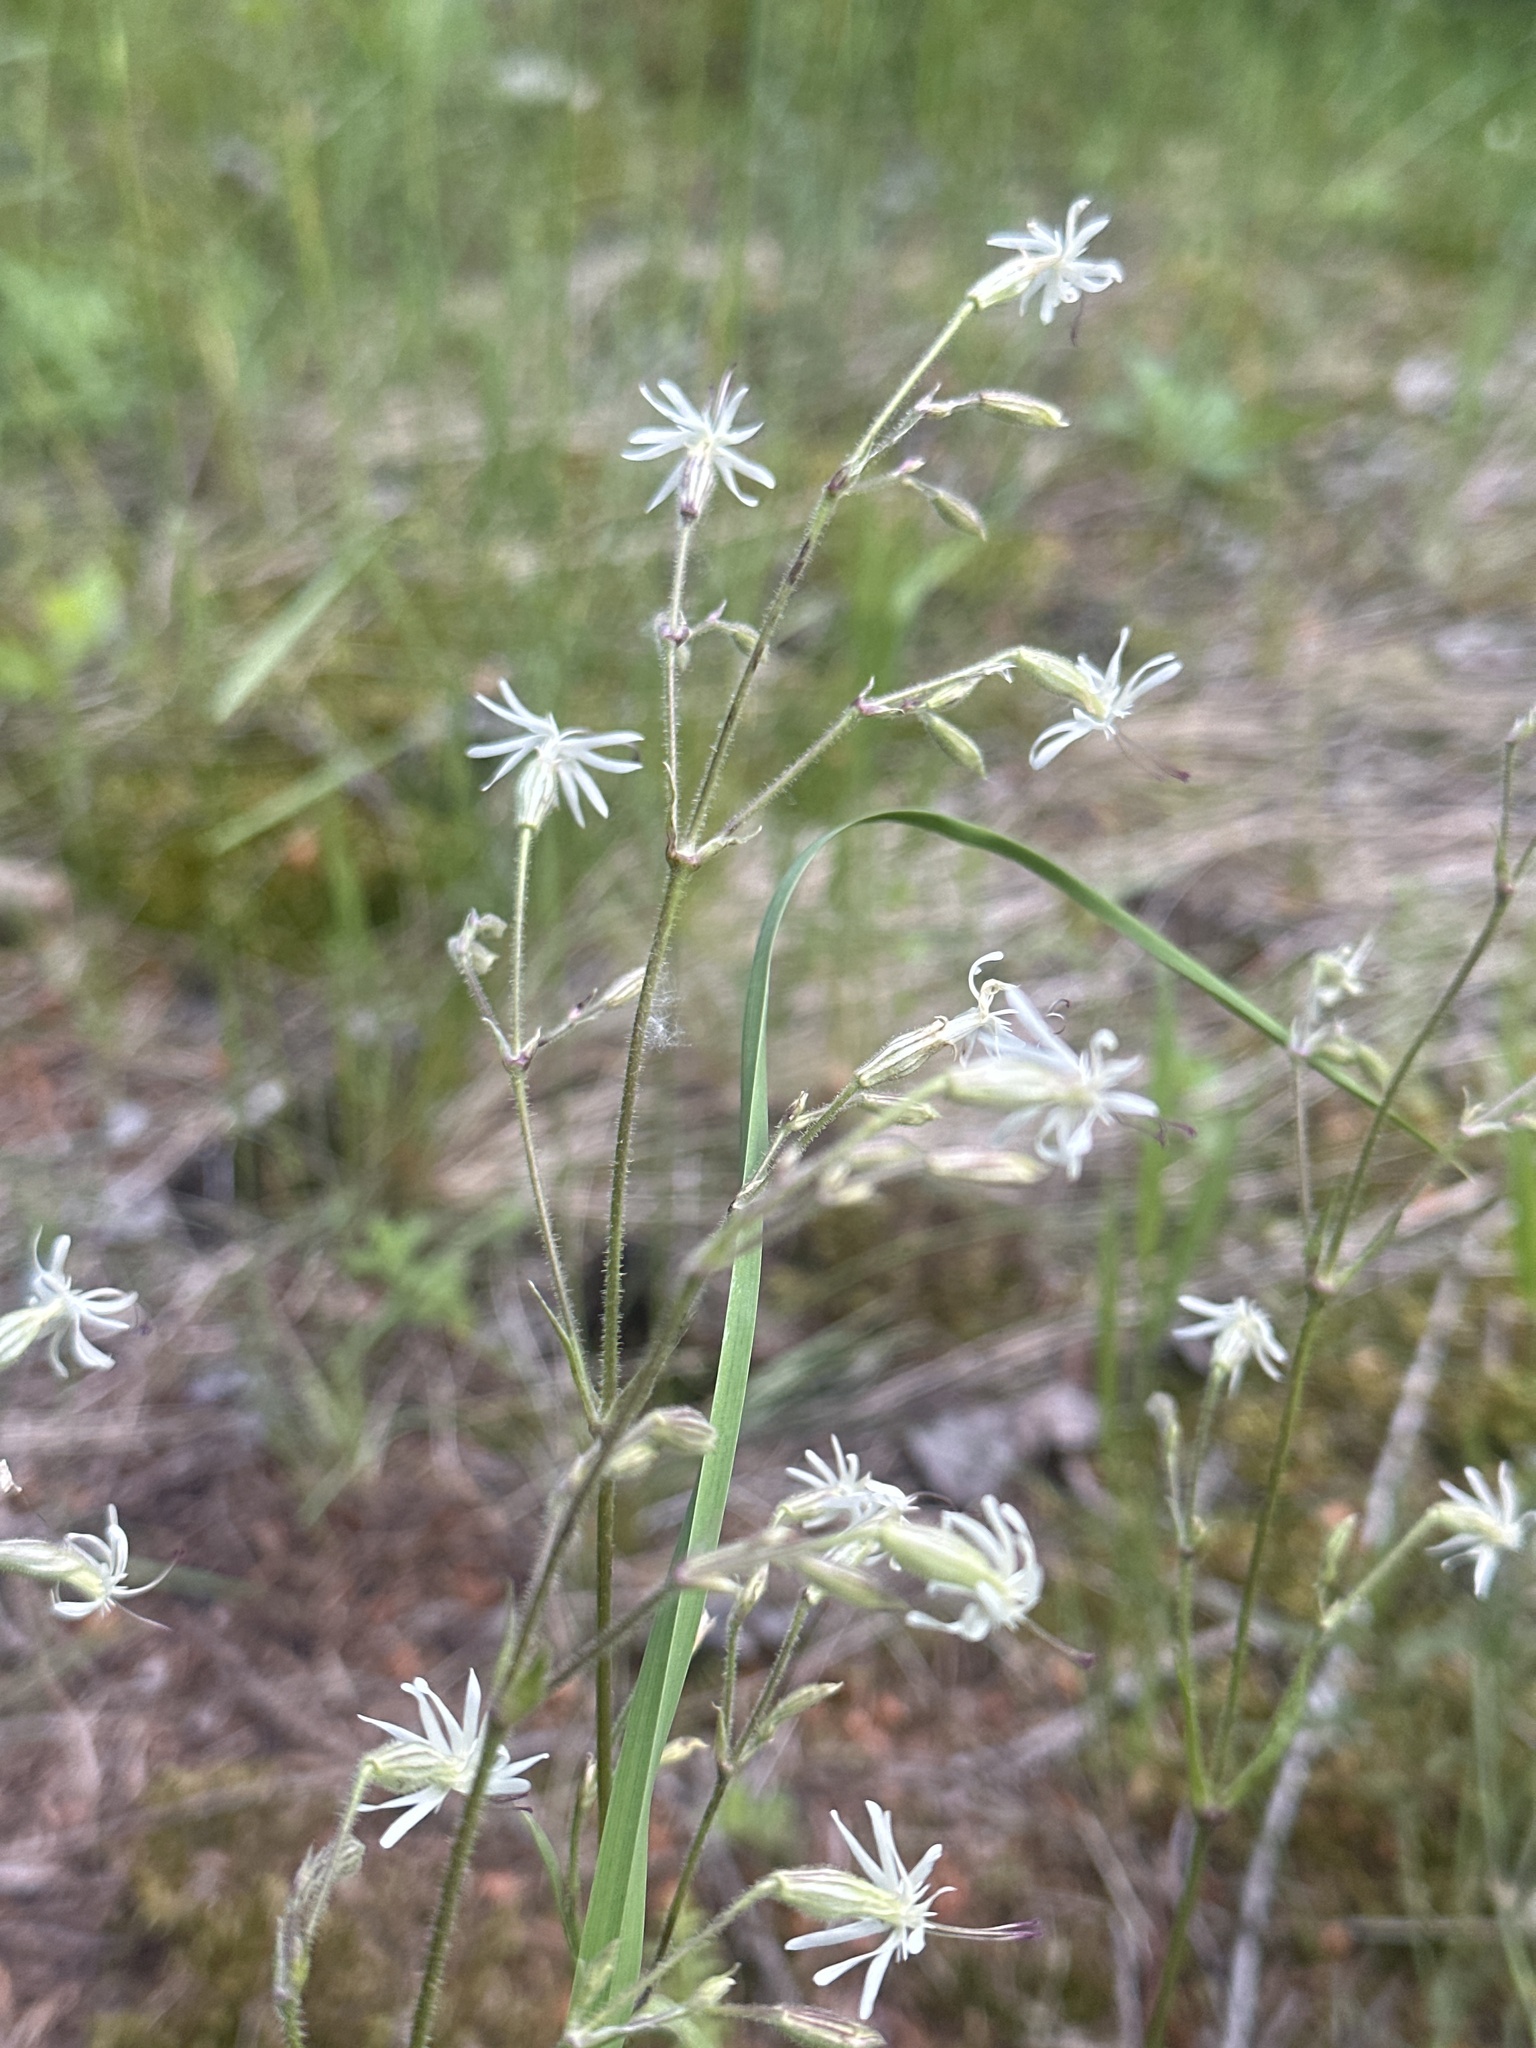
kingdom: Plantae
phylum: Tracheophyta
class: Magnoliopsida
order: Caryophyllales
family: Caryophyllaceae
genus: Silene
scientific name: Silene nutans
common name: Nottingham catchfly
